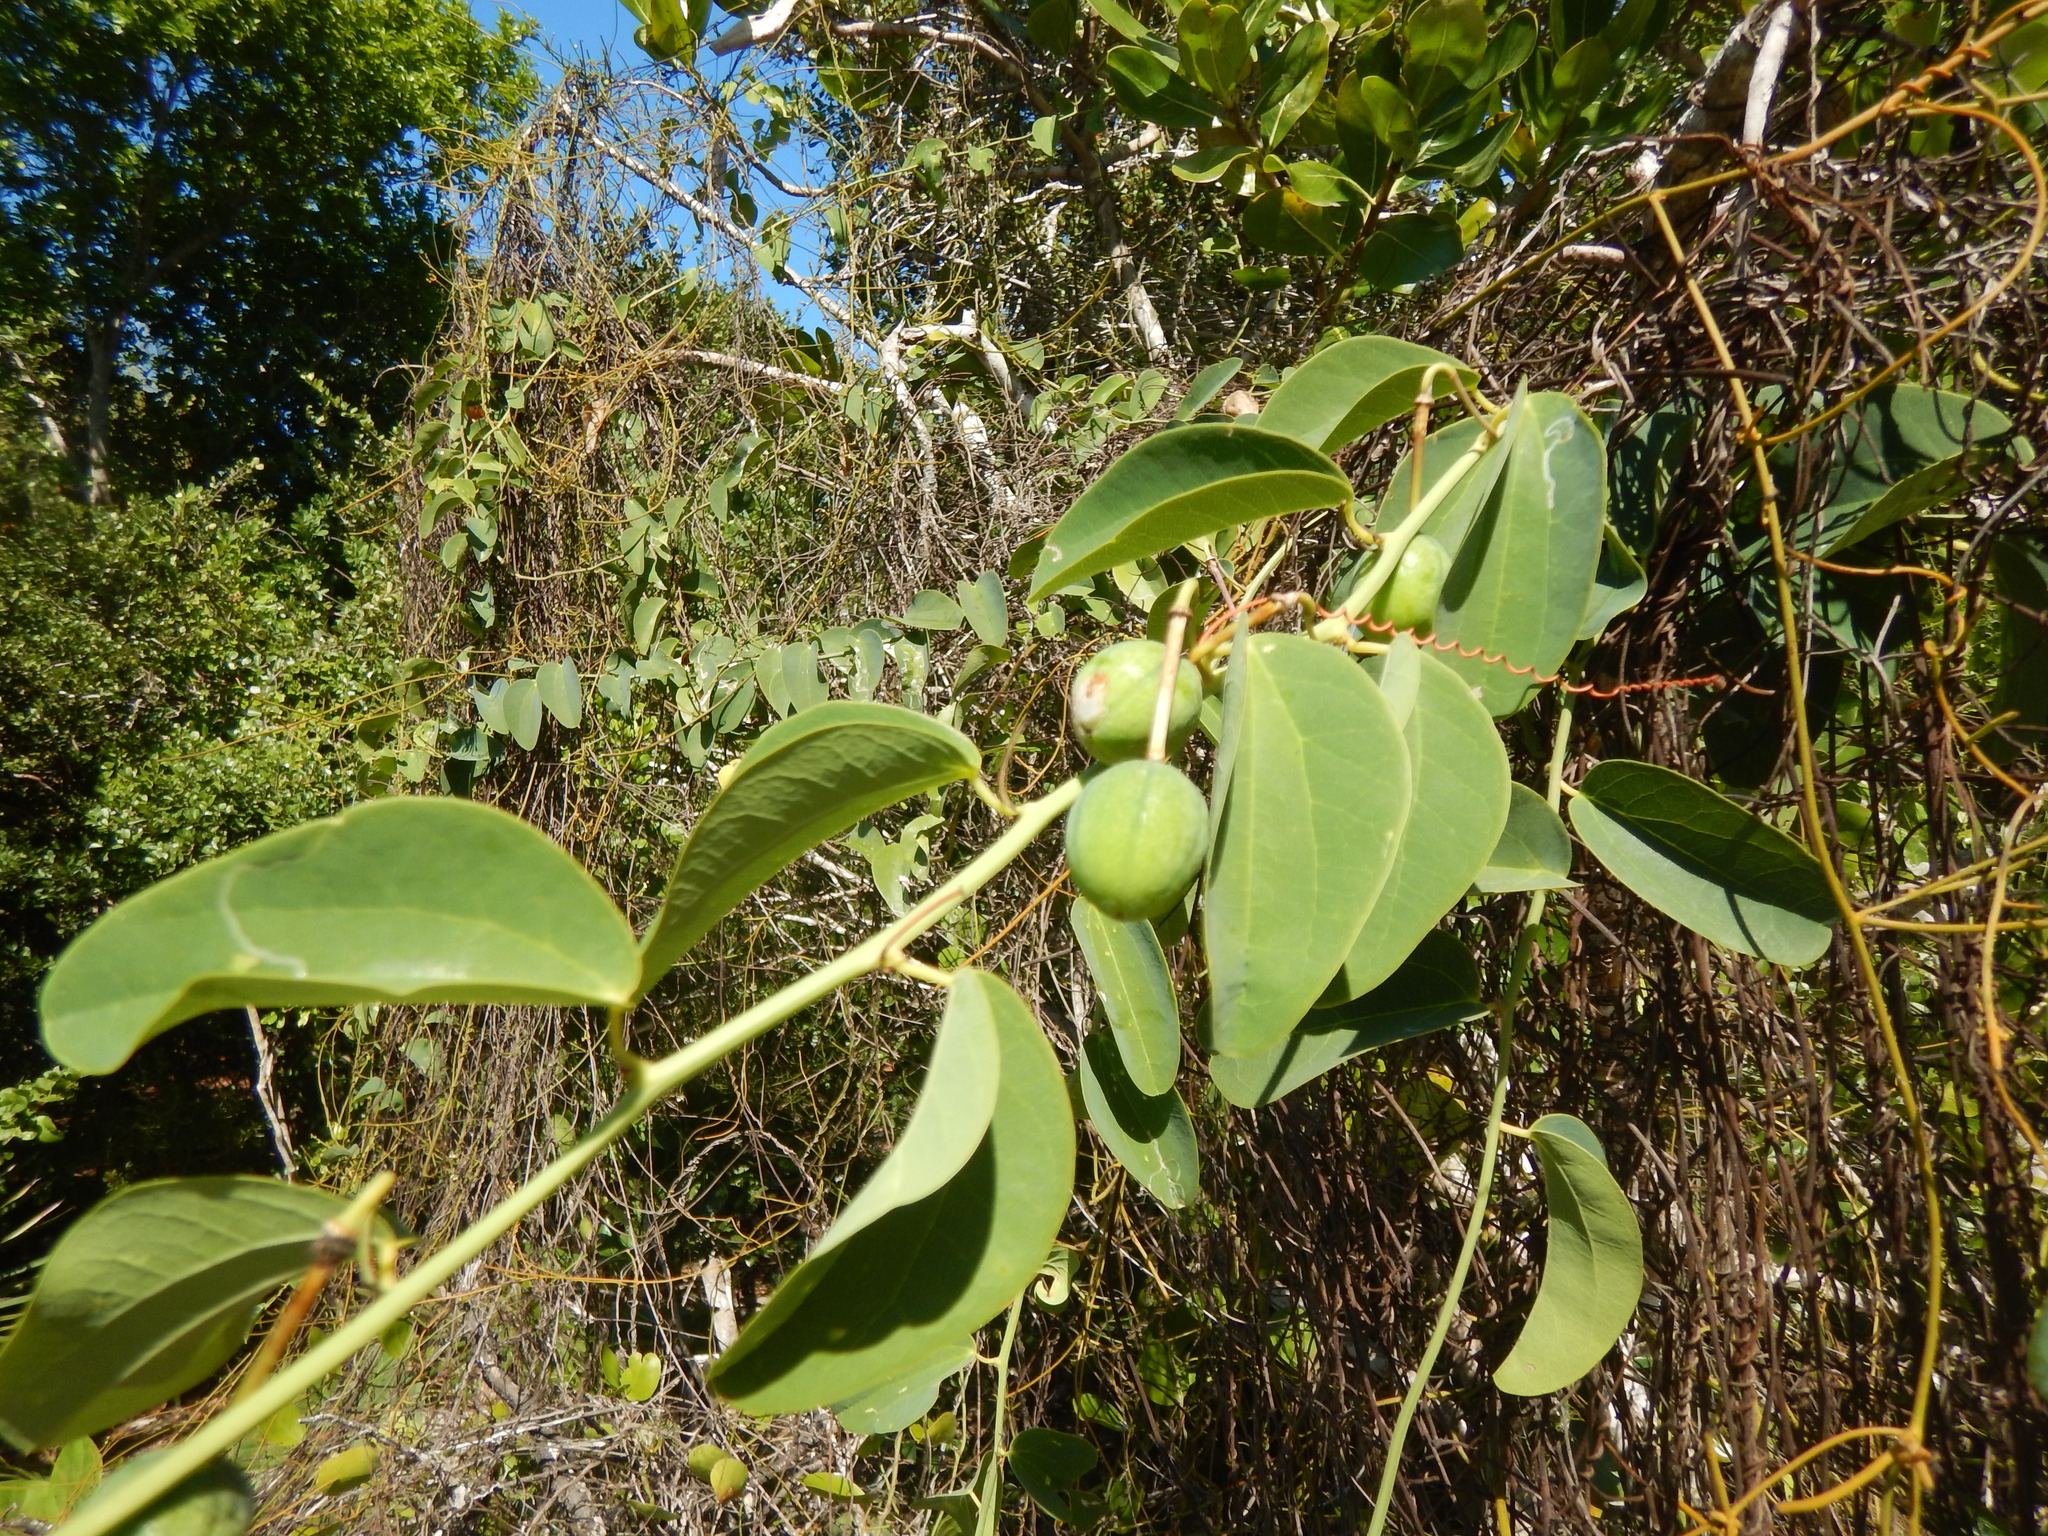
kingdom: Plantae
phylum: Tracheophyta
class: Magnoliopsida
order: Malpighiales
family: Passifloraceae
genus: Passiflora
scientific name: Passiflora cupraea
